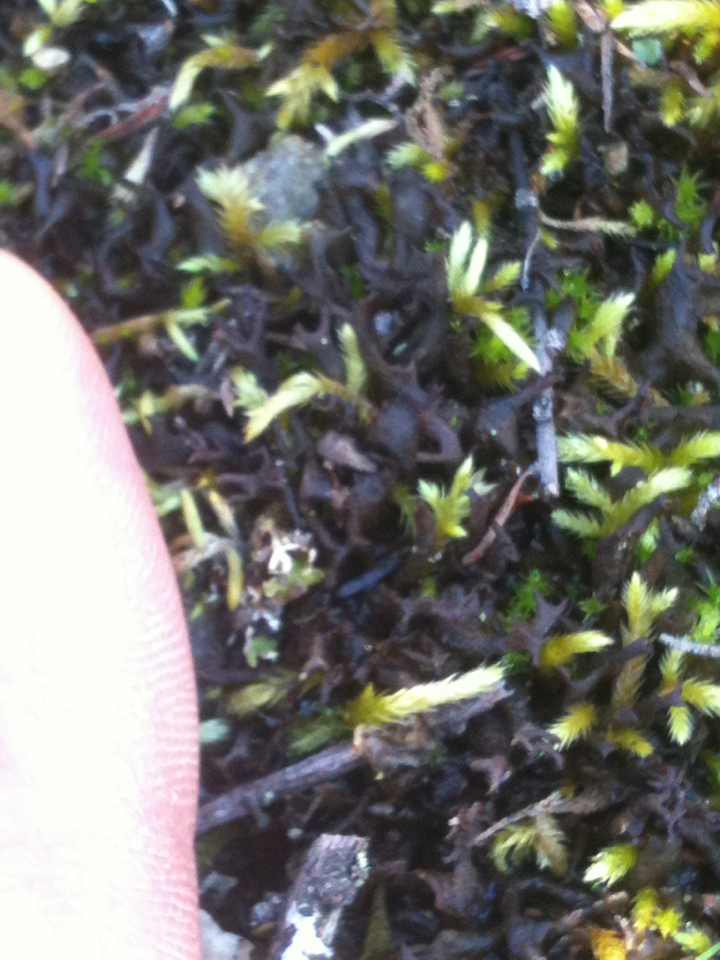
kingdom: Fungi
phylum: Ascomycota
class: Lecanoromycetes
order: Peltigerales
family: Collemataceae
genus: Scytinium
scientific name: Scytinium palmatum
